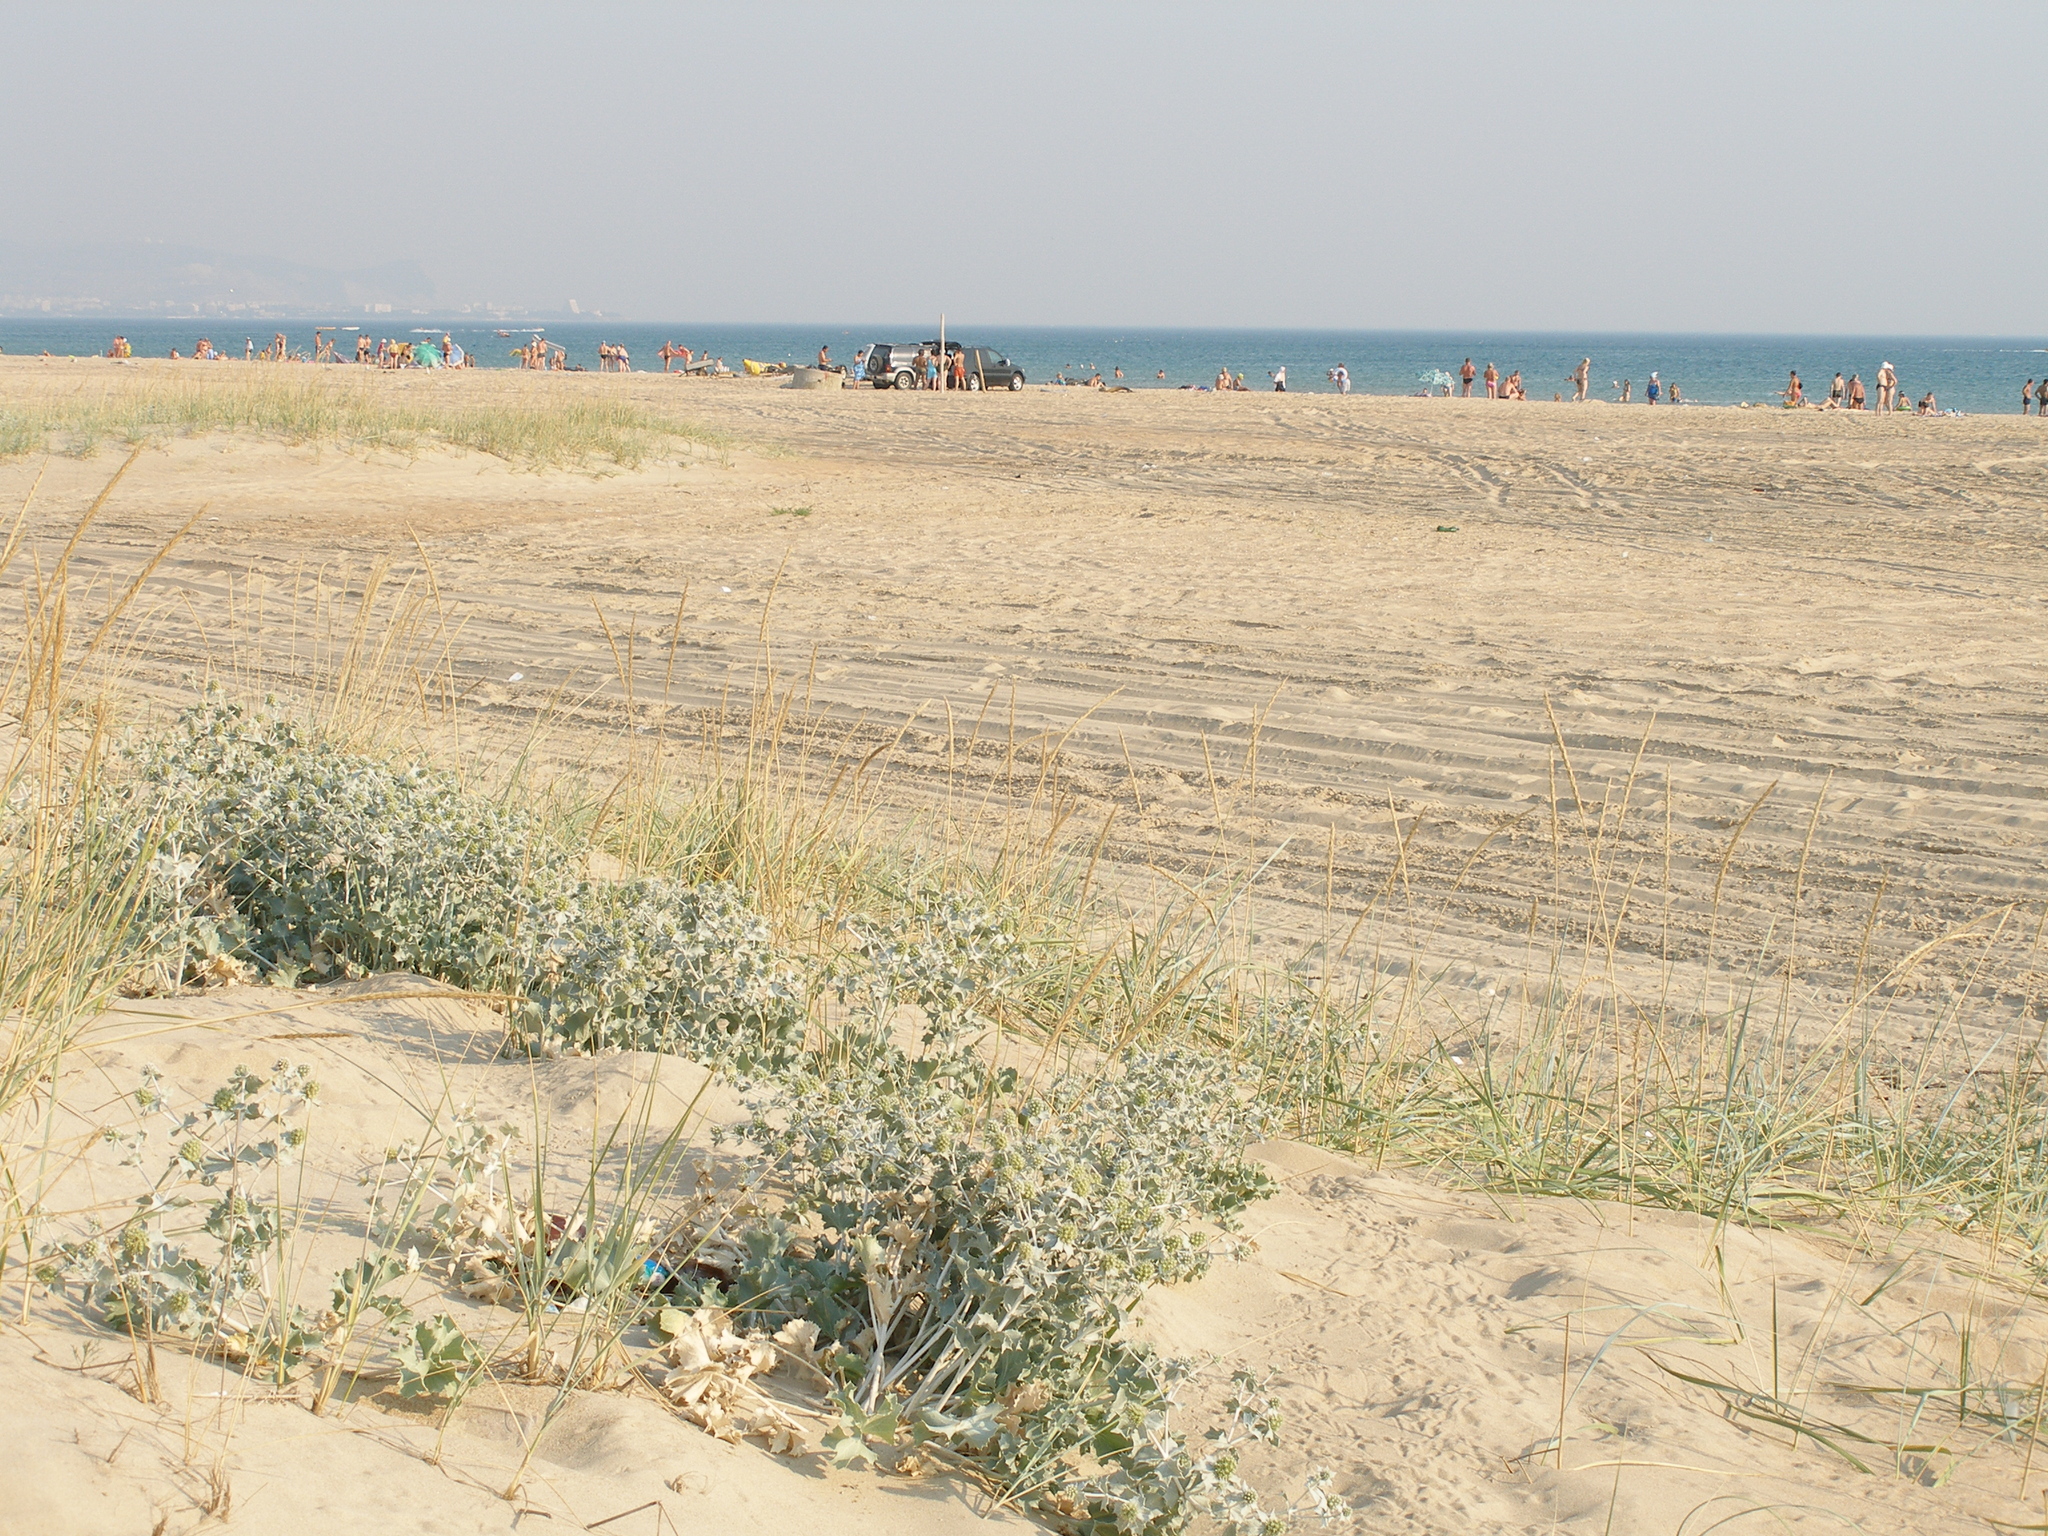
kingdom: Plantae
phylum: Tracheophyta
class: Magnoliopsida
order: Apiales
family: Apiaceae
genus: Eryngium
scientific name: Eryngium maritimum
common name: Sea-holly
